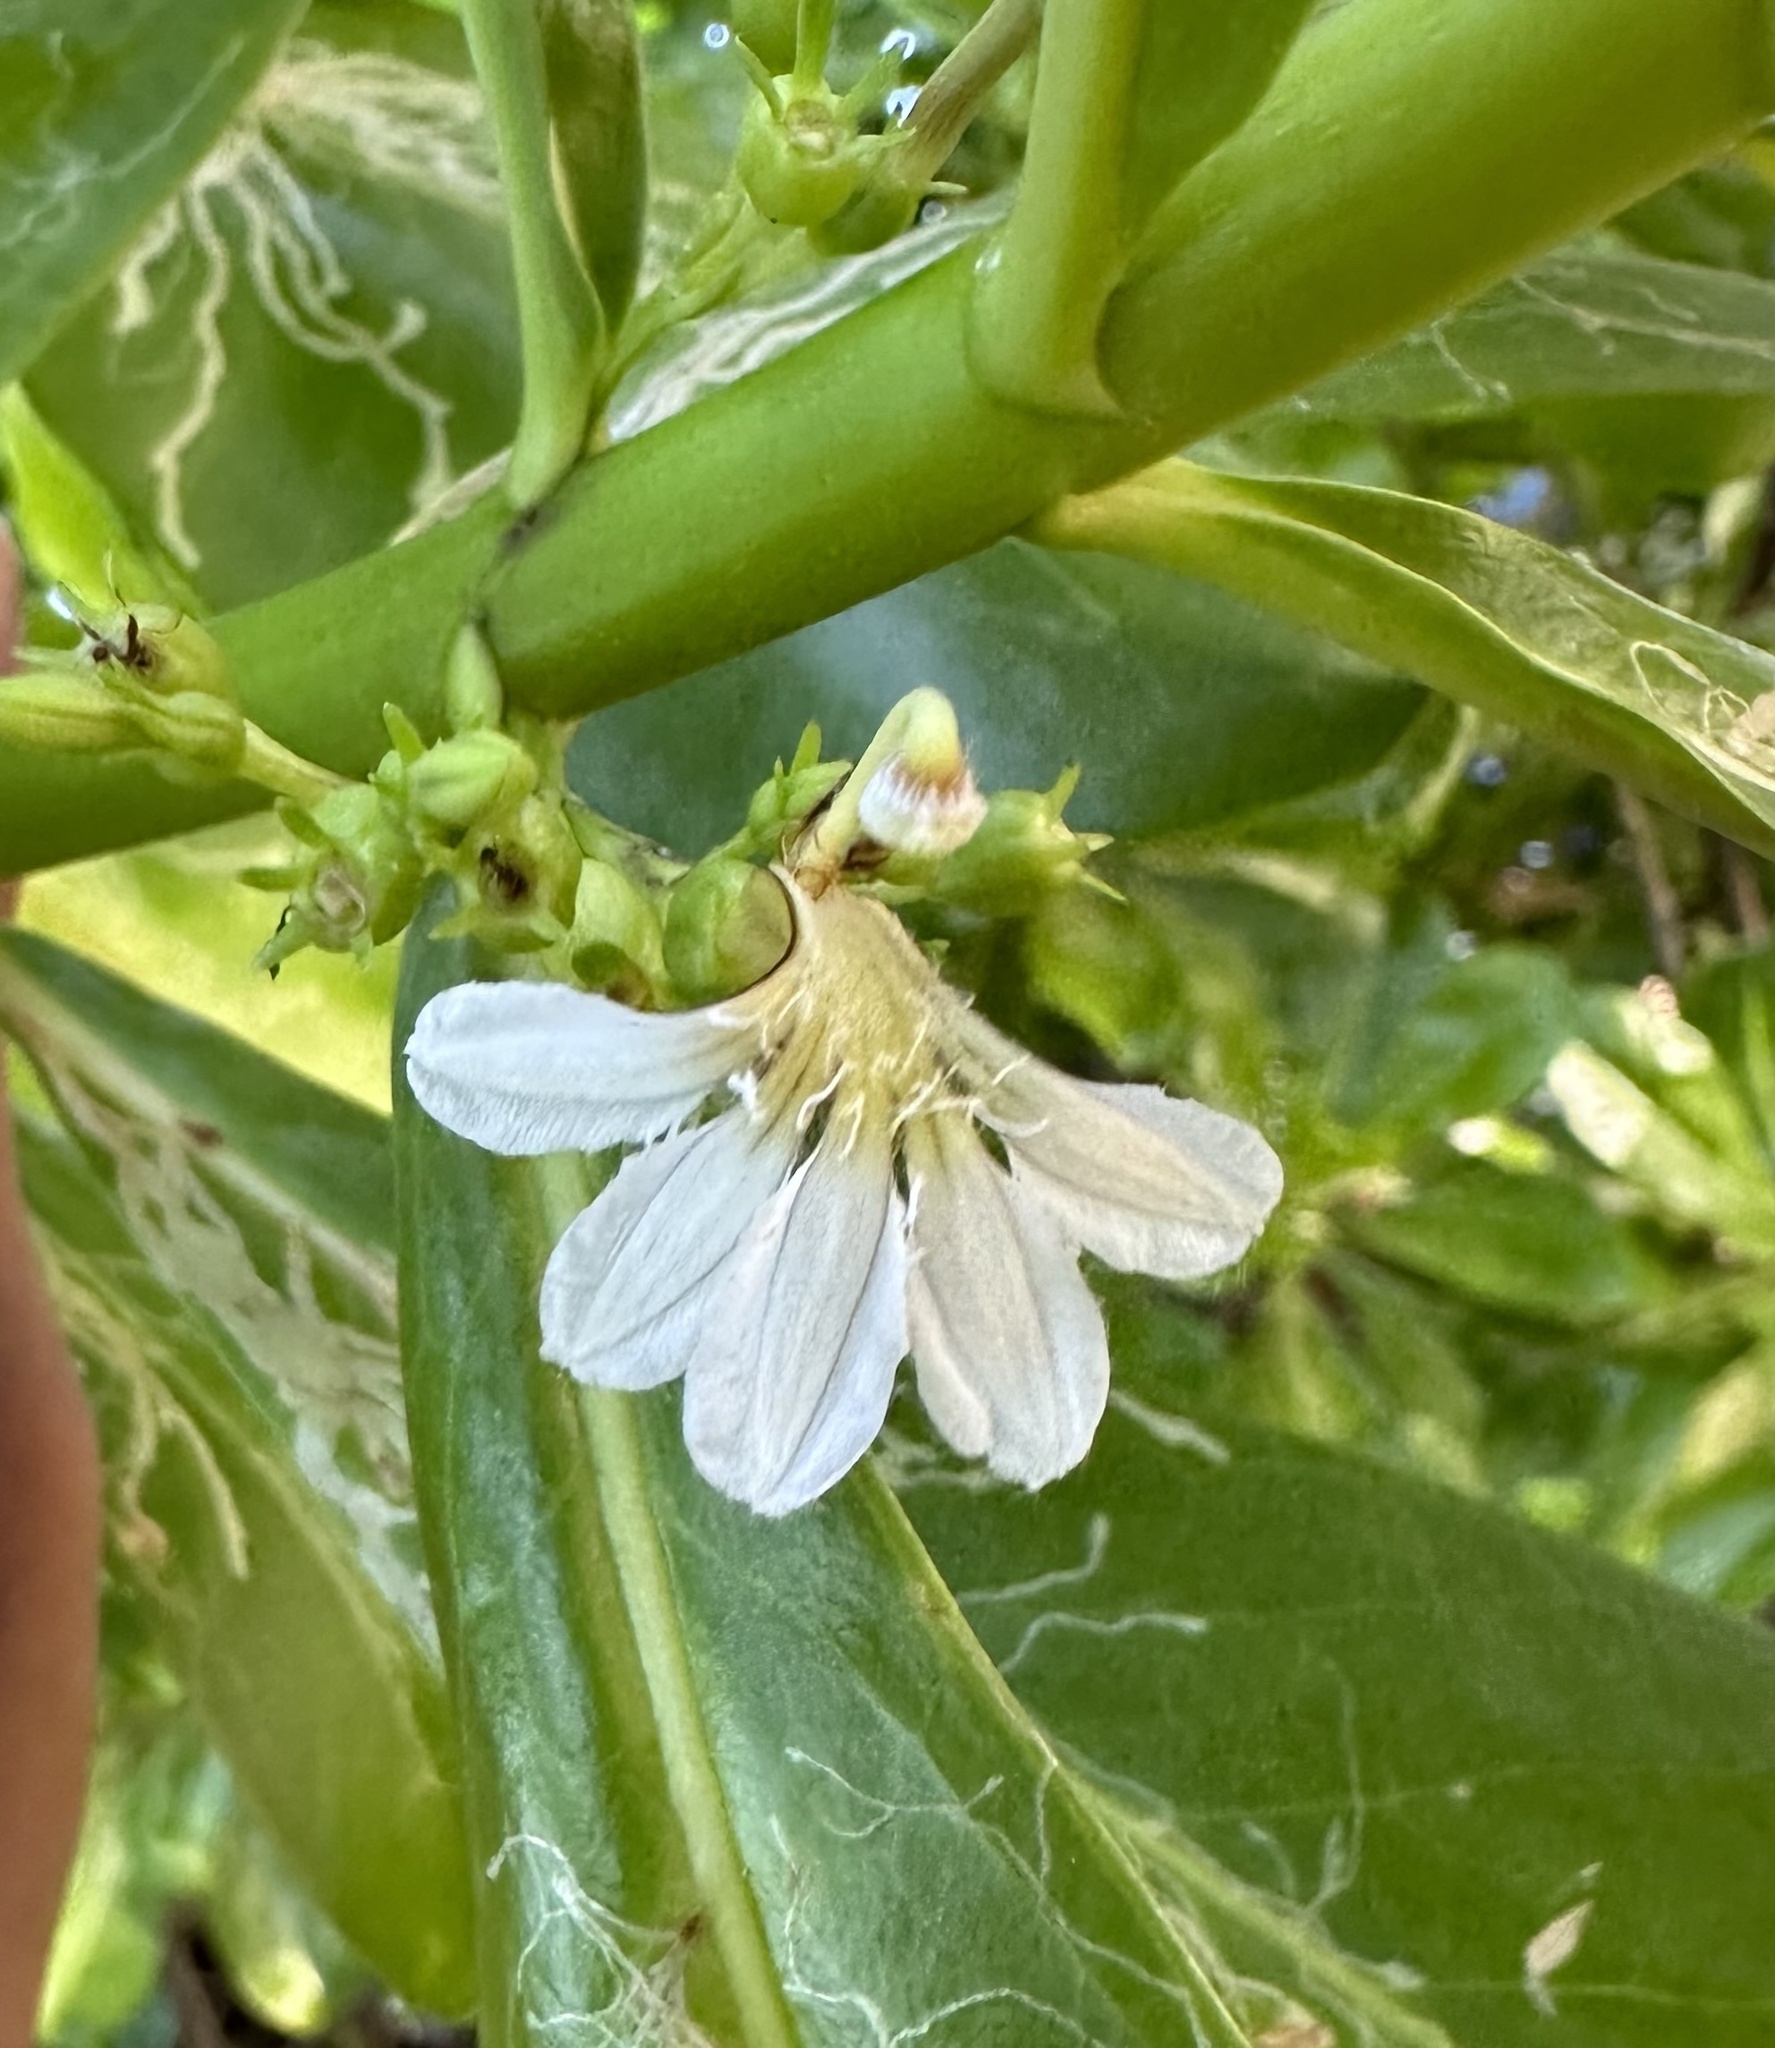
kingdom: Plantae
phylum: Tracheophyta
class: Magnoliopsida
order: Asterales
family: Goodeniaceae
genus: Scaevola
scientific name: Scaevola taccada
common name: Sea lettucetree
